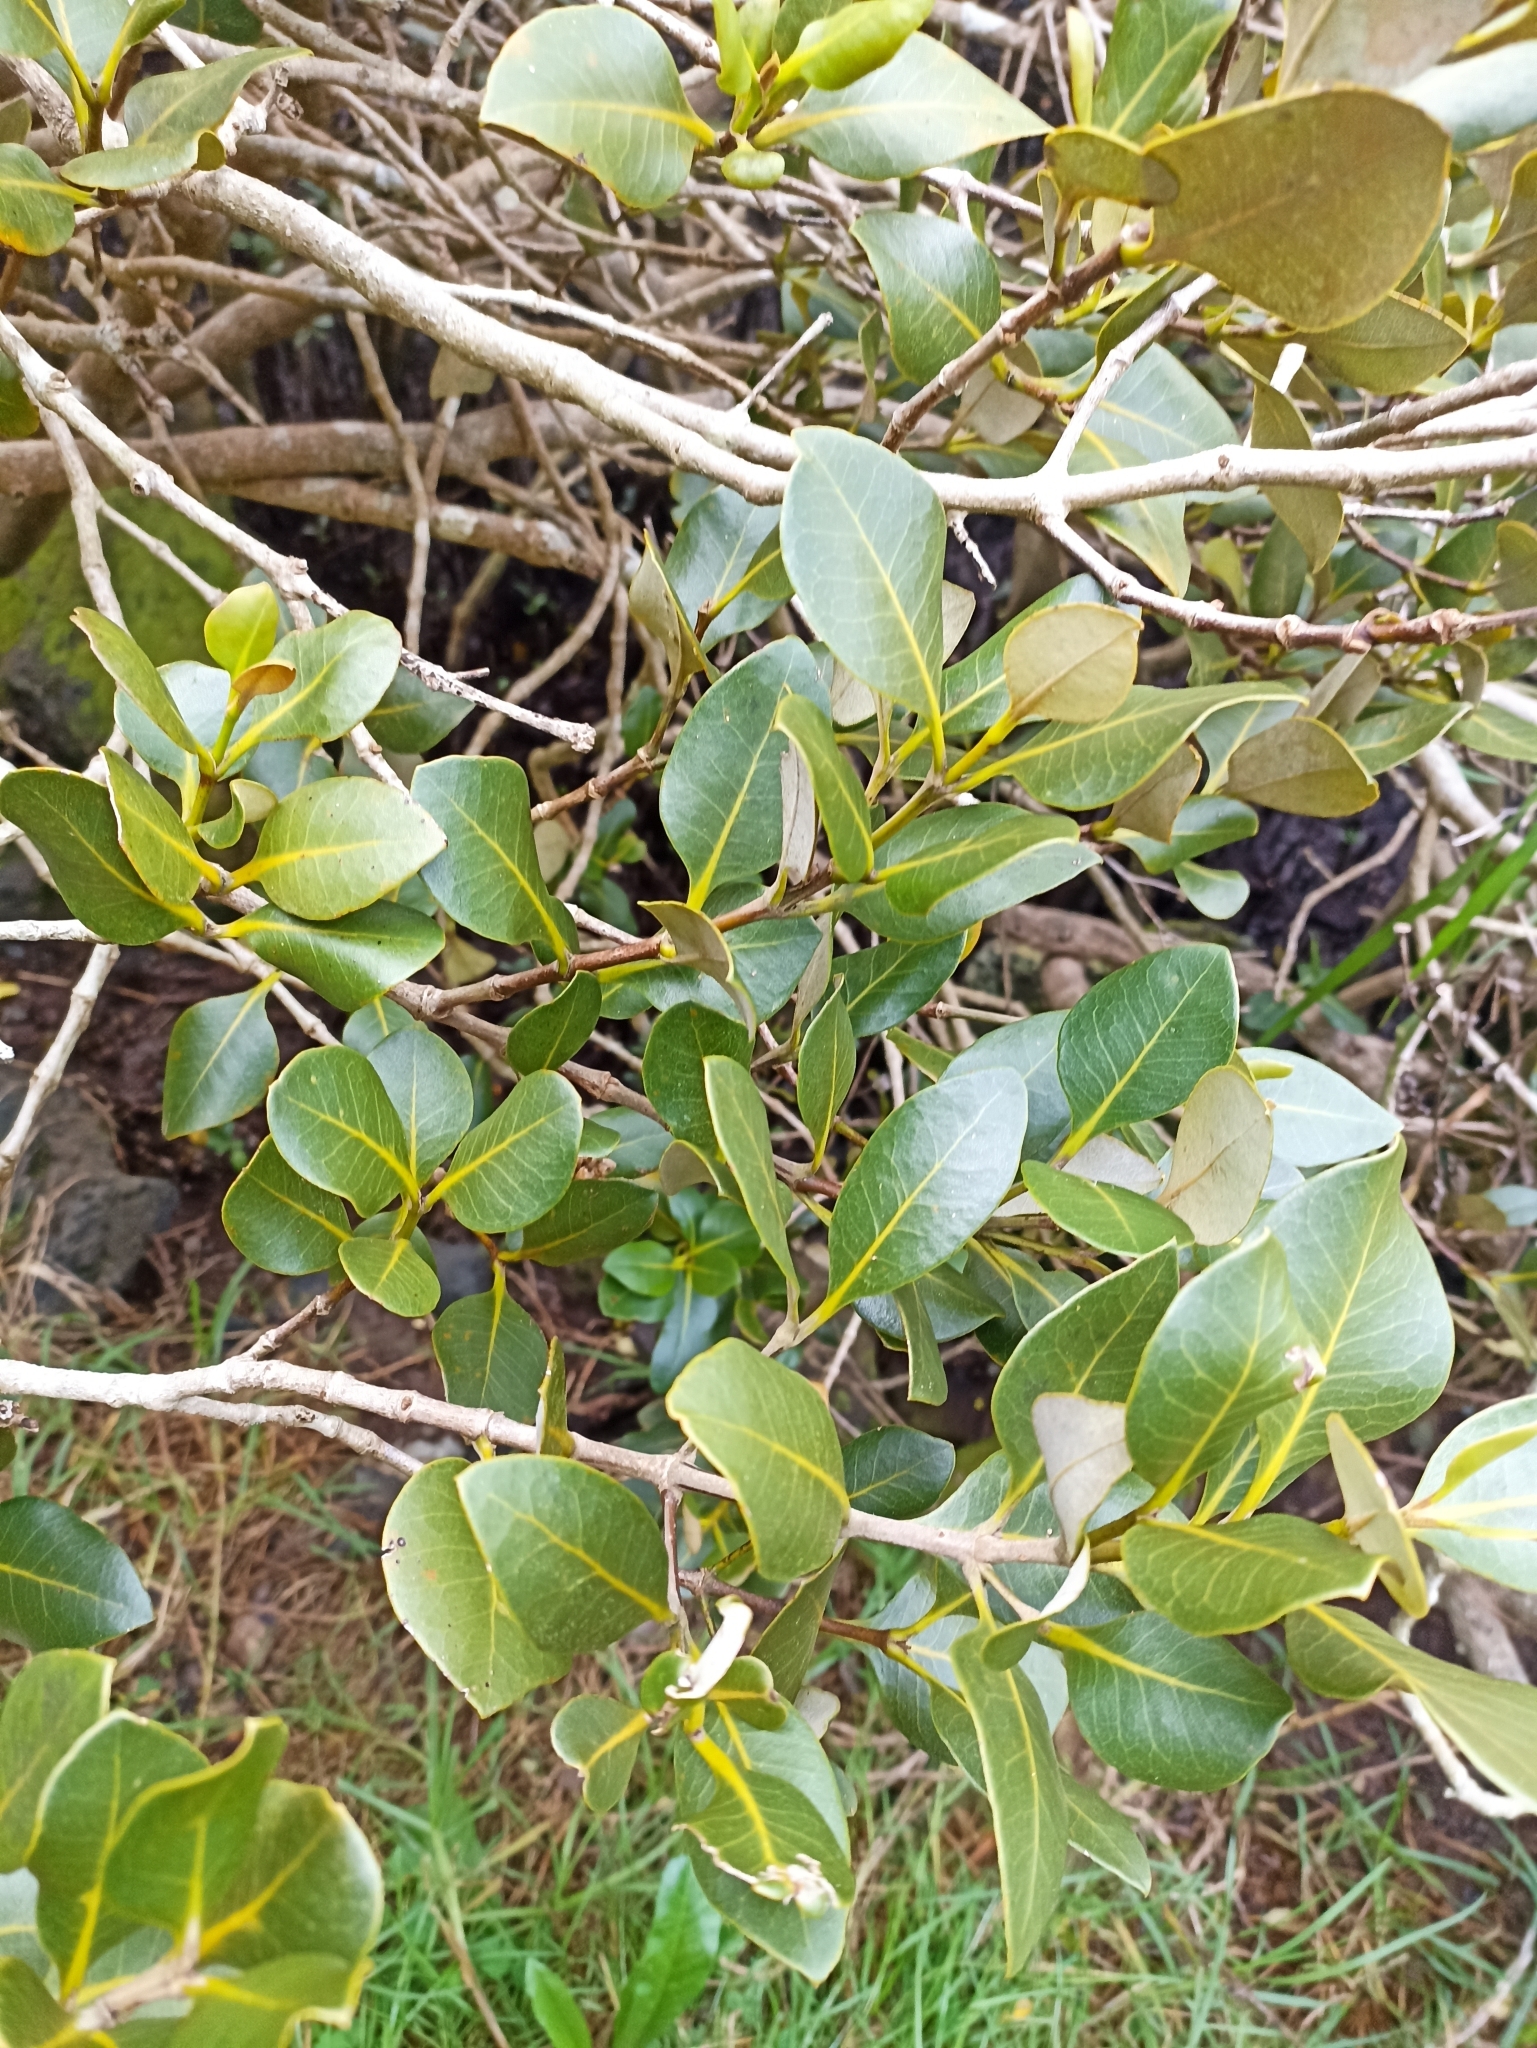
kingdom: Plantae
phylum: Tracheophyta
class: Magnoliopsida
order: Lamiales
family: Acanthaceae
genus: Avicennia
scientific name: Avicennia marina
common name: Gray mangrove
